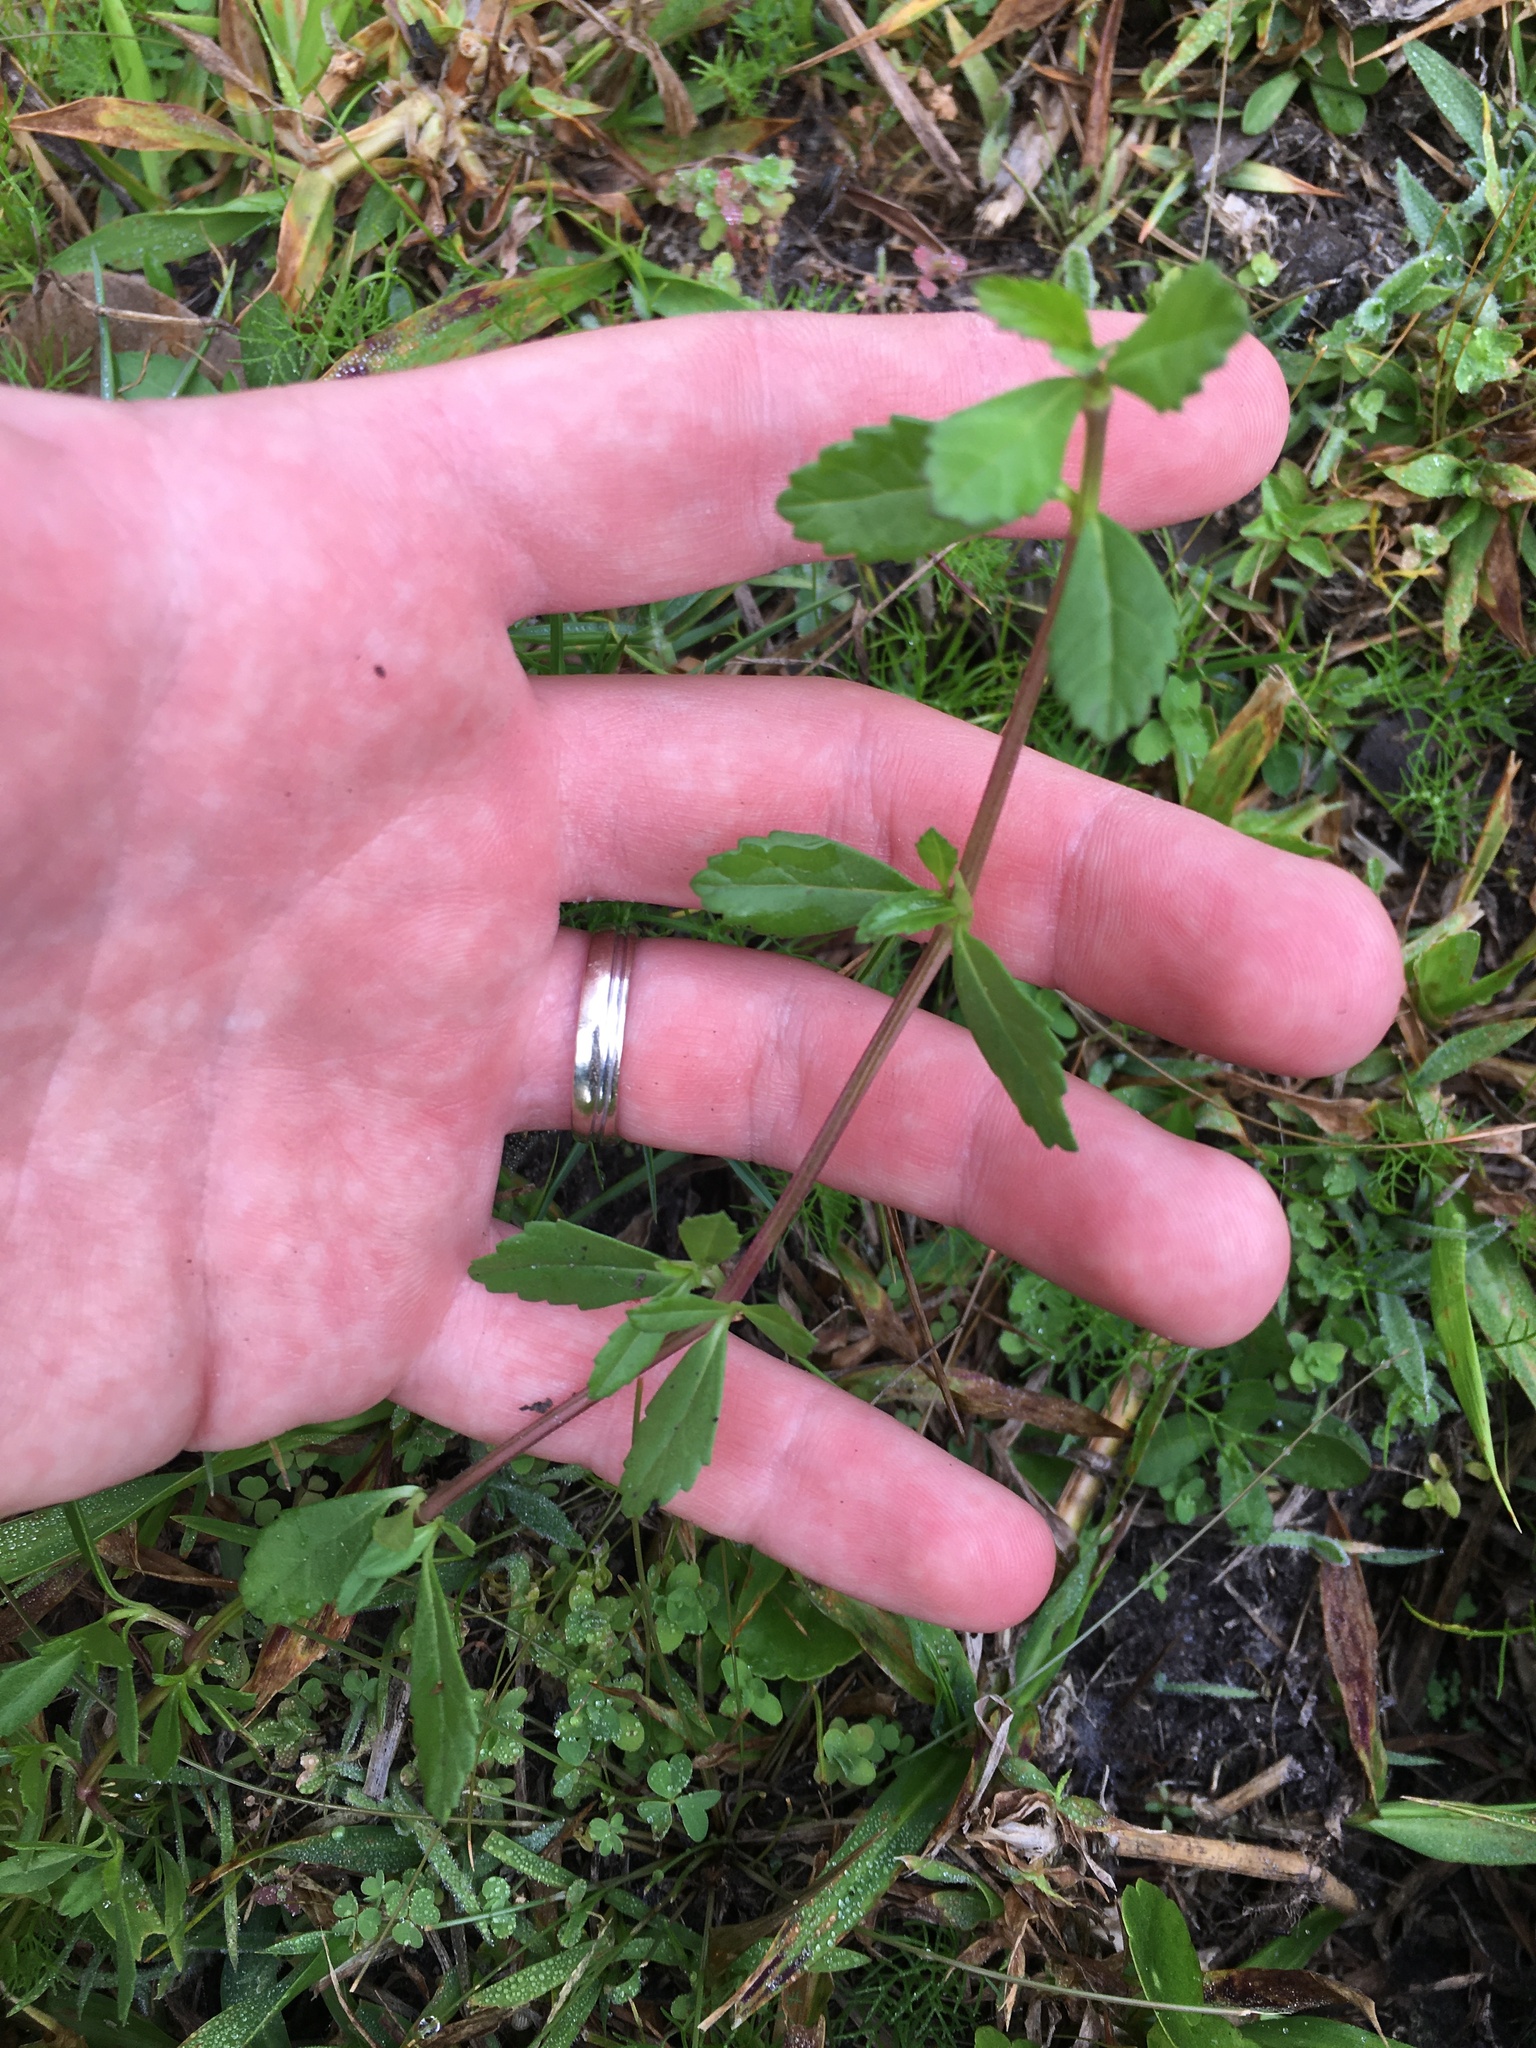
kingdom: Plantae
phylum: Tracheophyta
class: Magnoliopsida
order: Lamiales
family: Verbenaceae
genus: Phyla
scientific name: Phyla nodiflora
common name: Frogfruit
